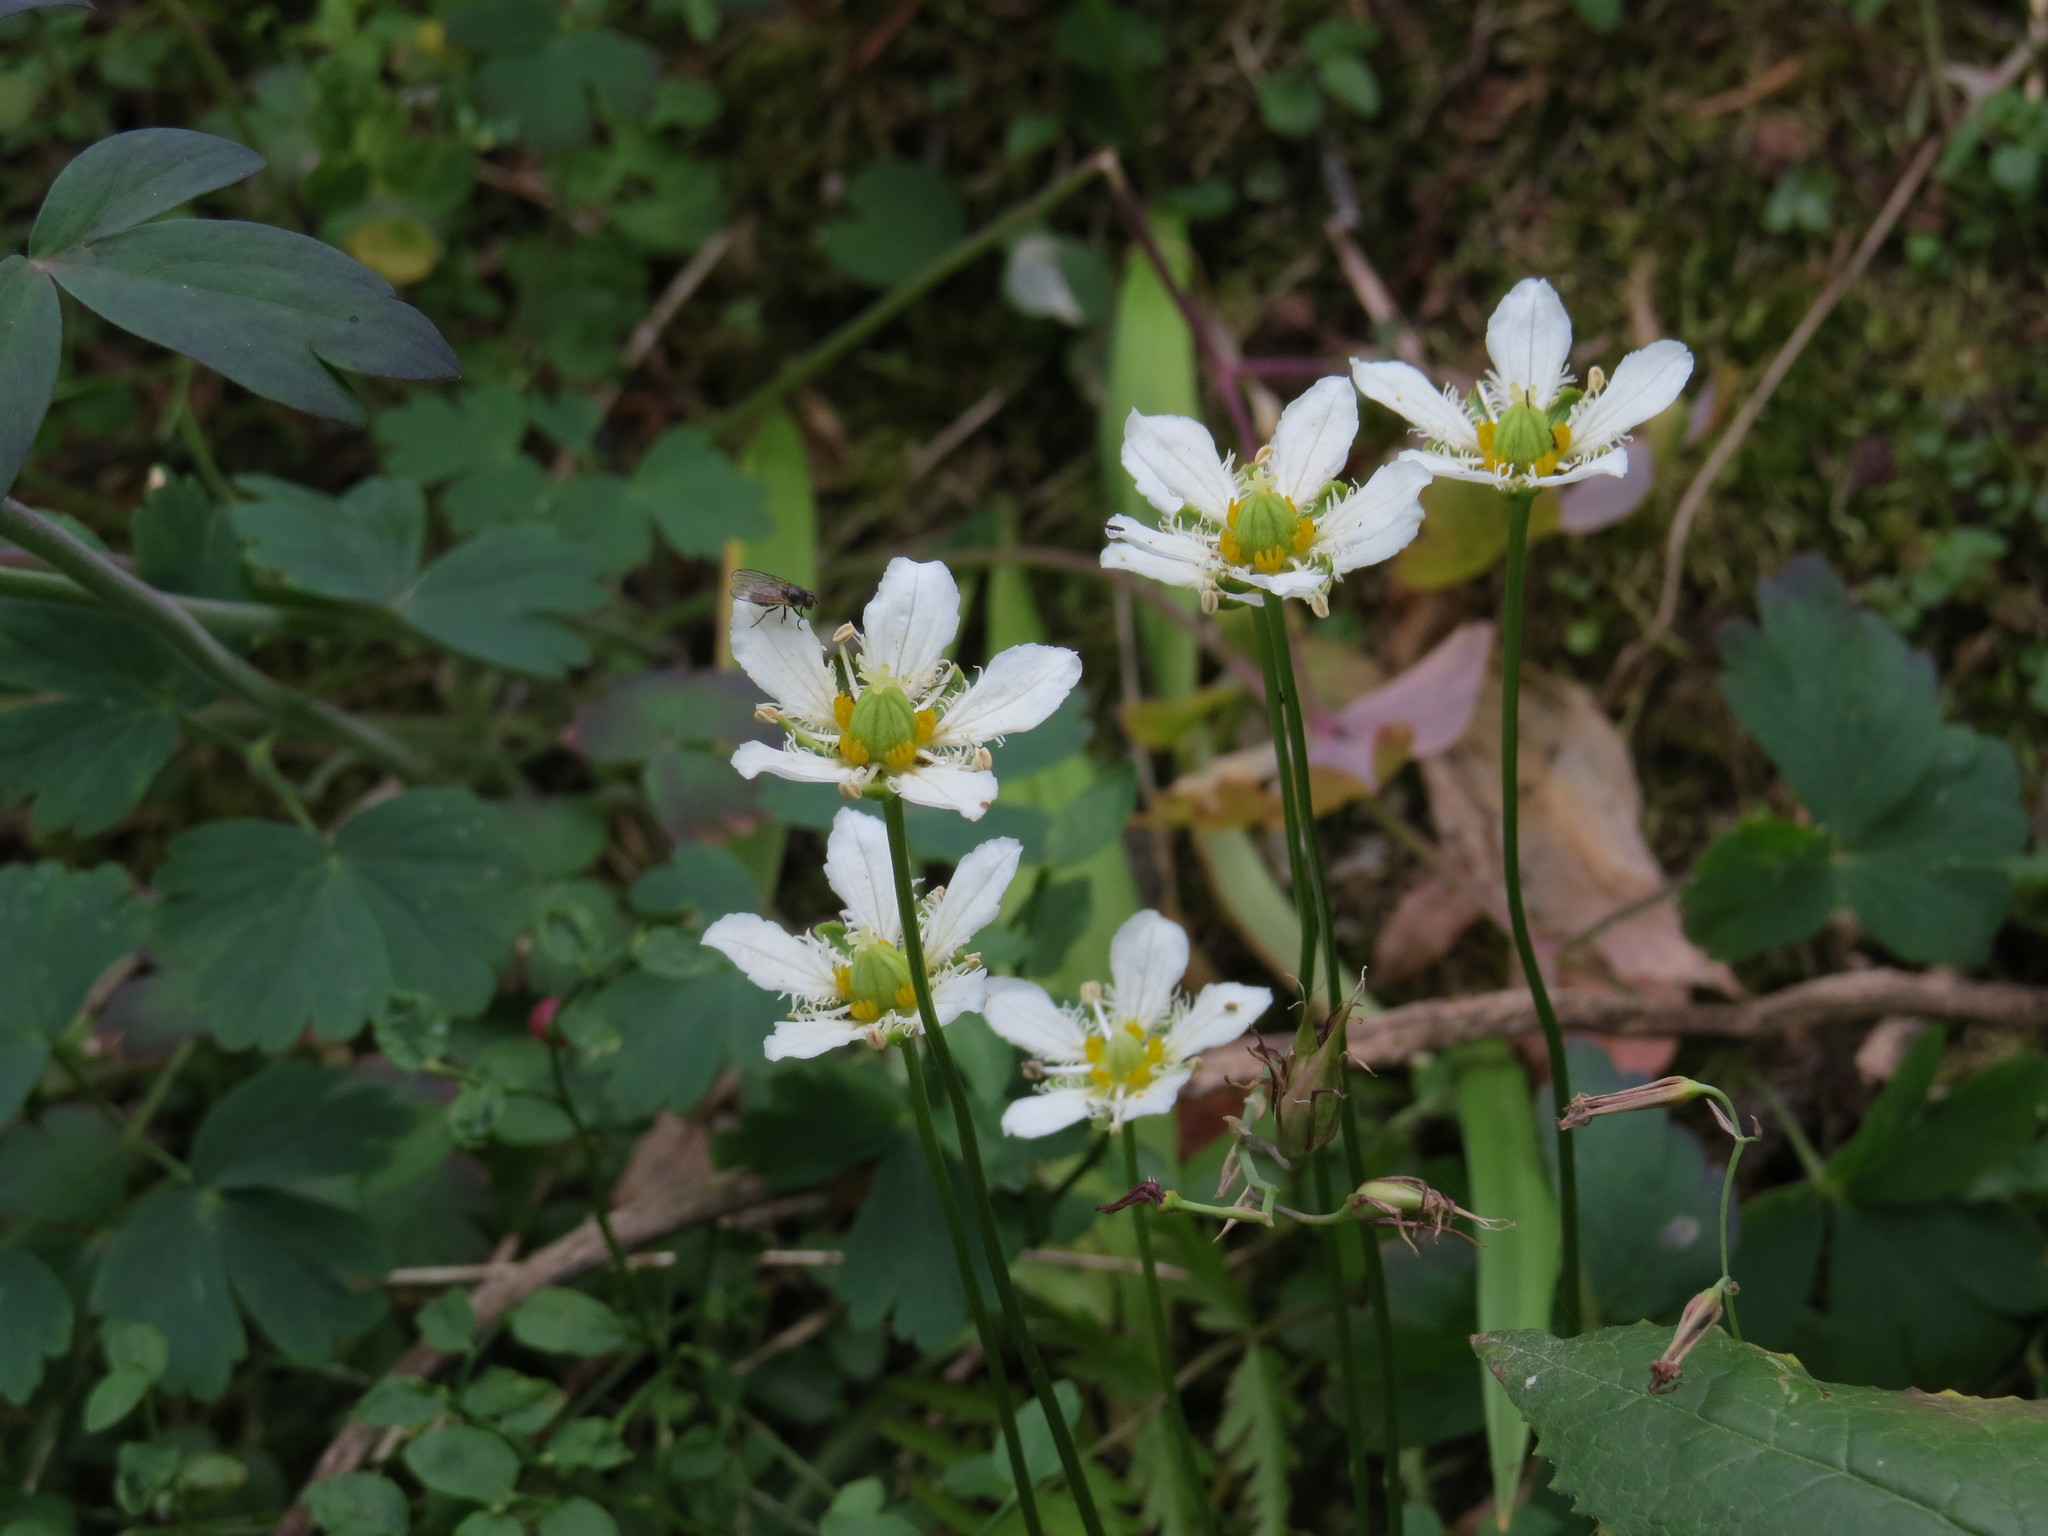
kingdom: Plantae
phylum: Tracheophyta
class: Magnoliopsida
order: Celastrales
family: Parnassiaceae
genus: Parnassia
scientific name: Parnassia fimbriata
